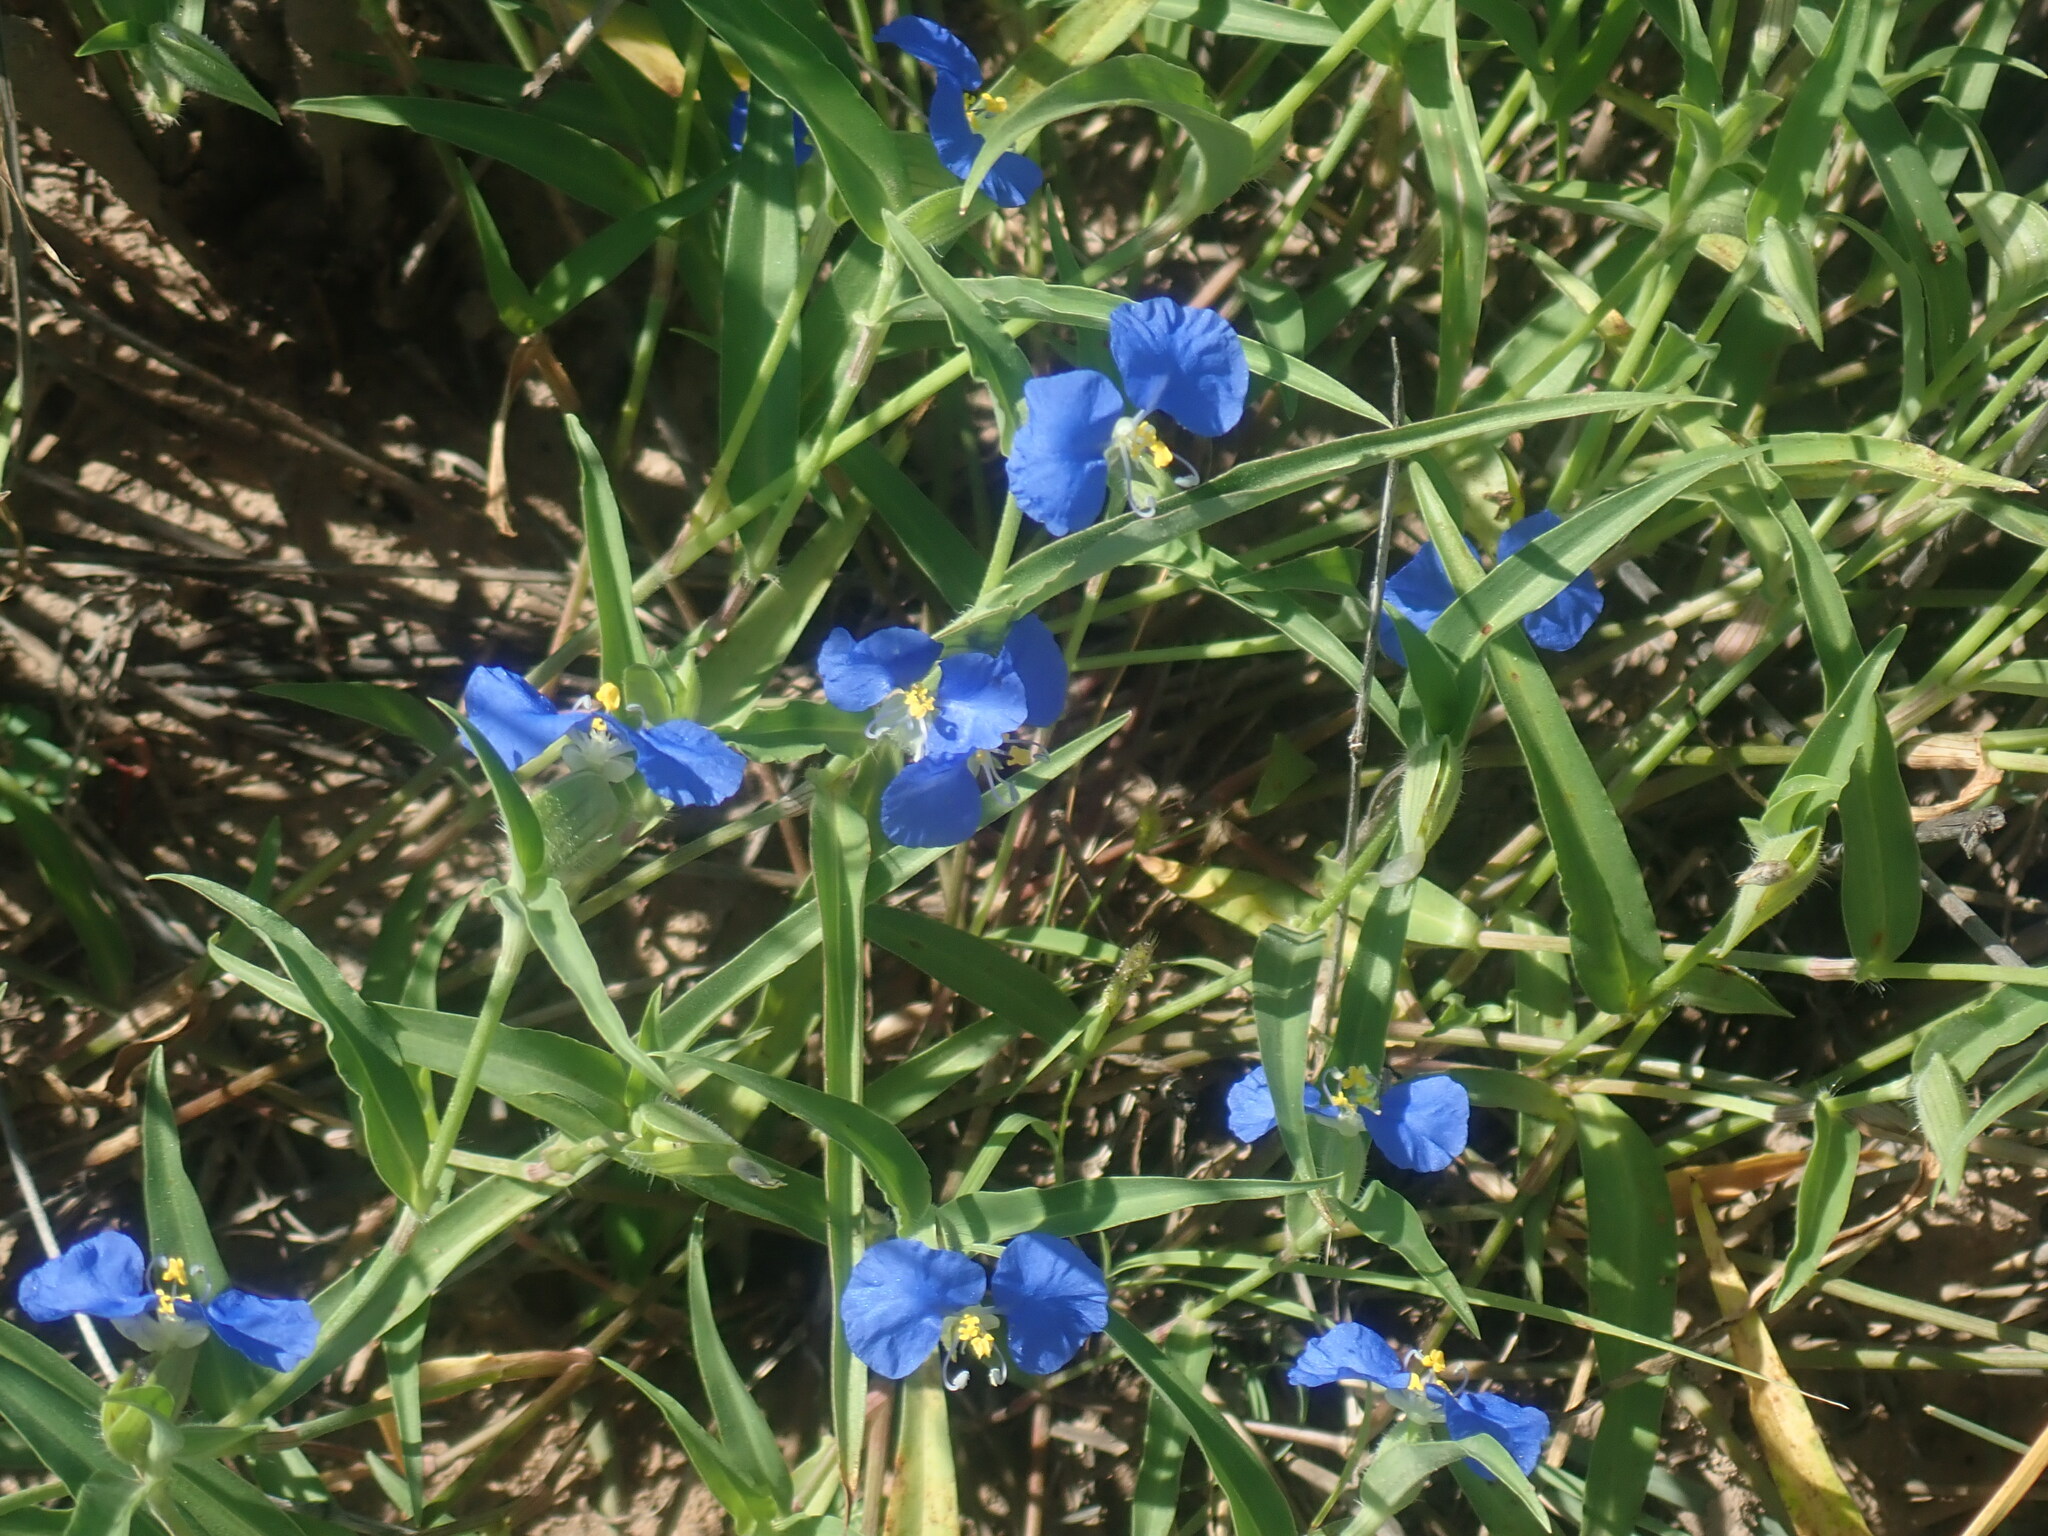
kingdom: Plantae
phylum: Tracheophyta
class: Liliopsida
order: Commelinales
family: Commelinaceae
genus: Commelina
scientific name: Commelina erecta
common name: Blousel blommetjie
